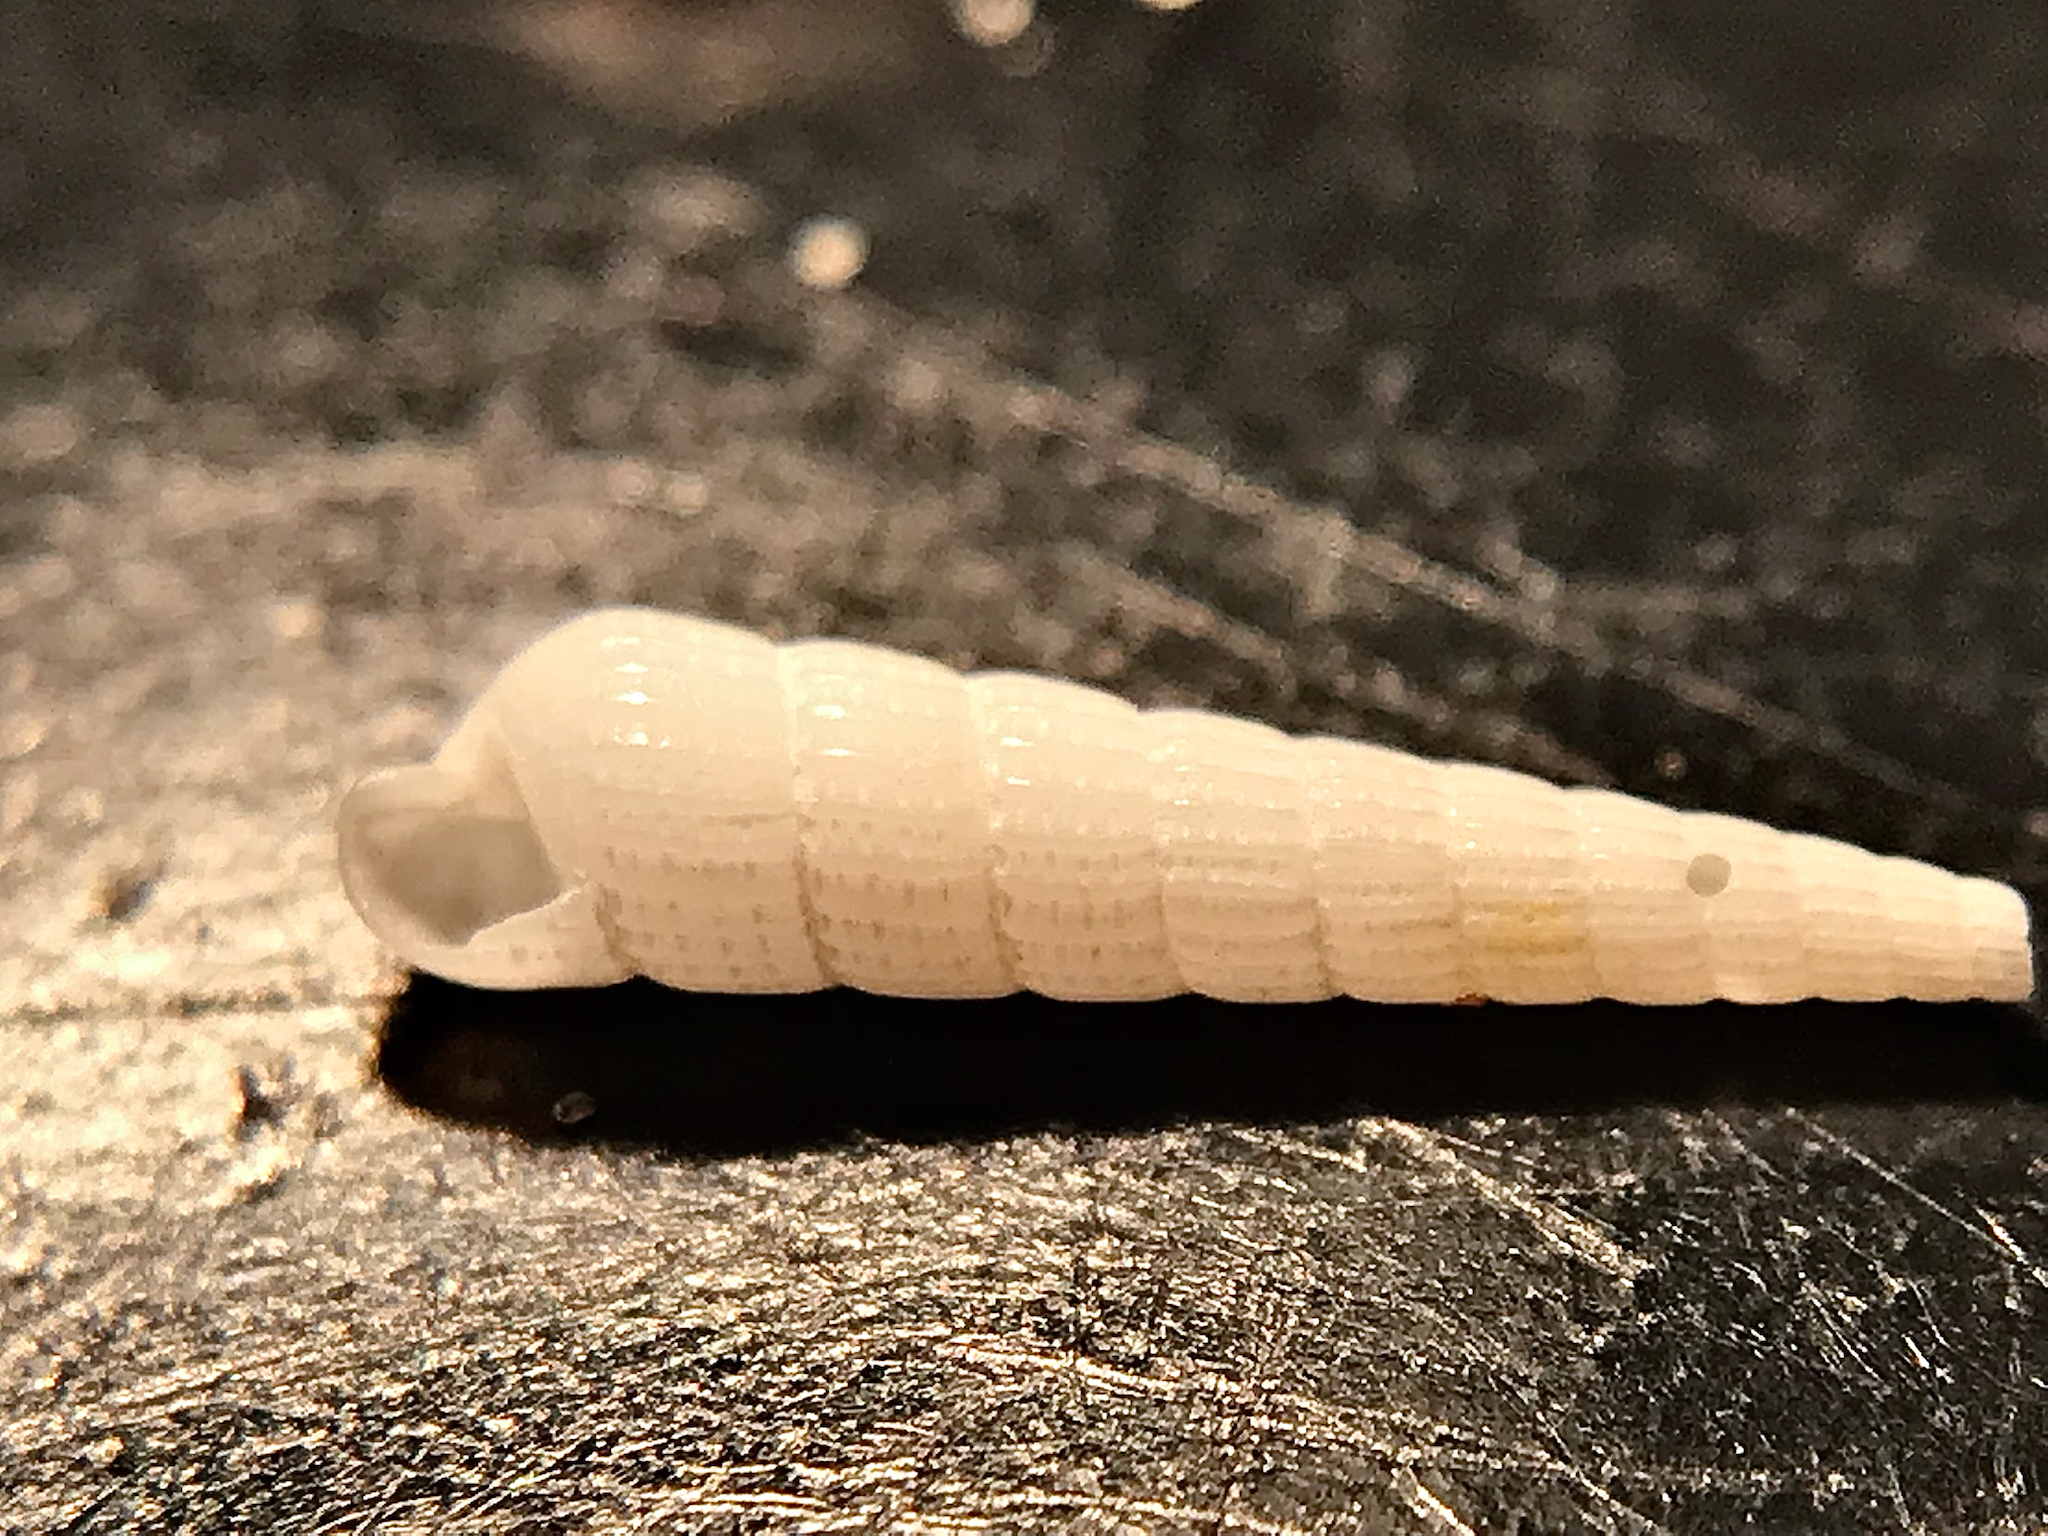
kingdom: Animalia
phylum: Mollusca
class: Gastropoda
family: Pyramidellidae
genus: Turbonilla
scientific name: Turbonilla viridaria
